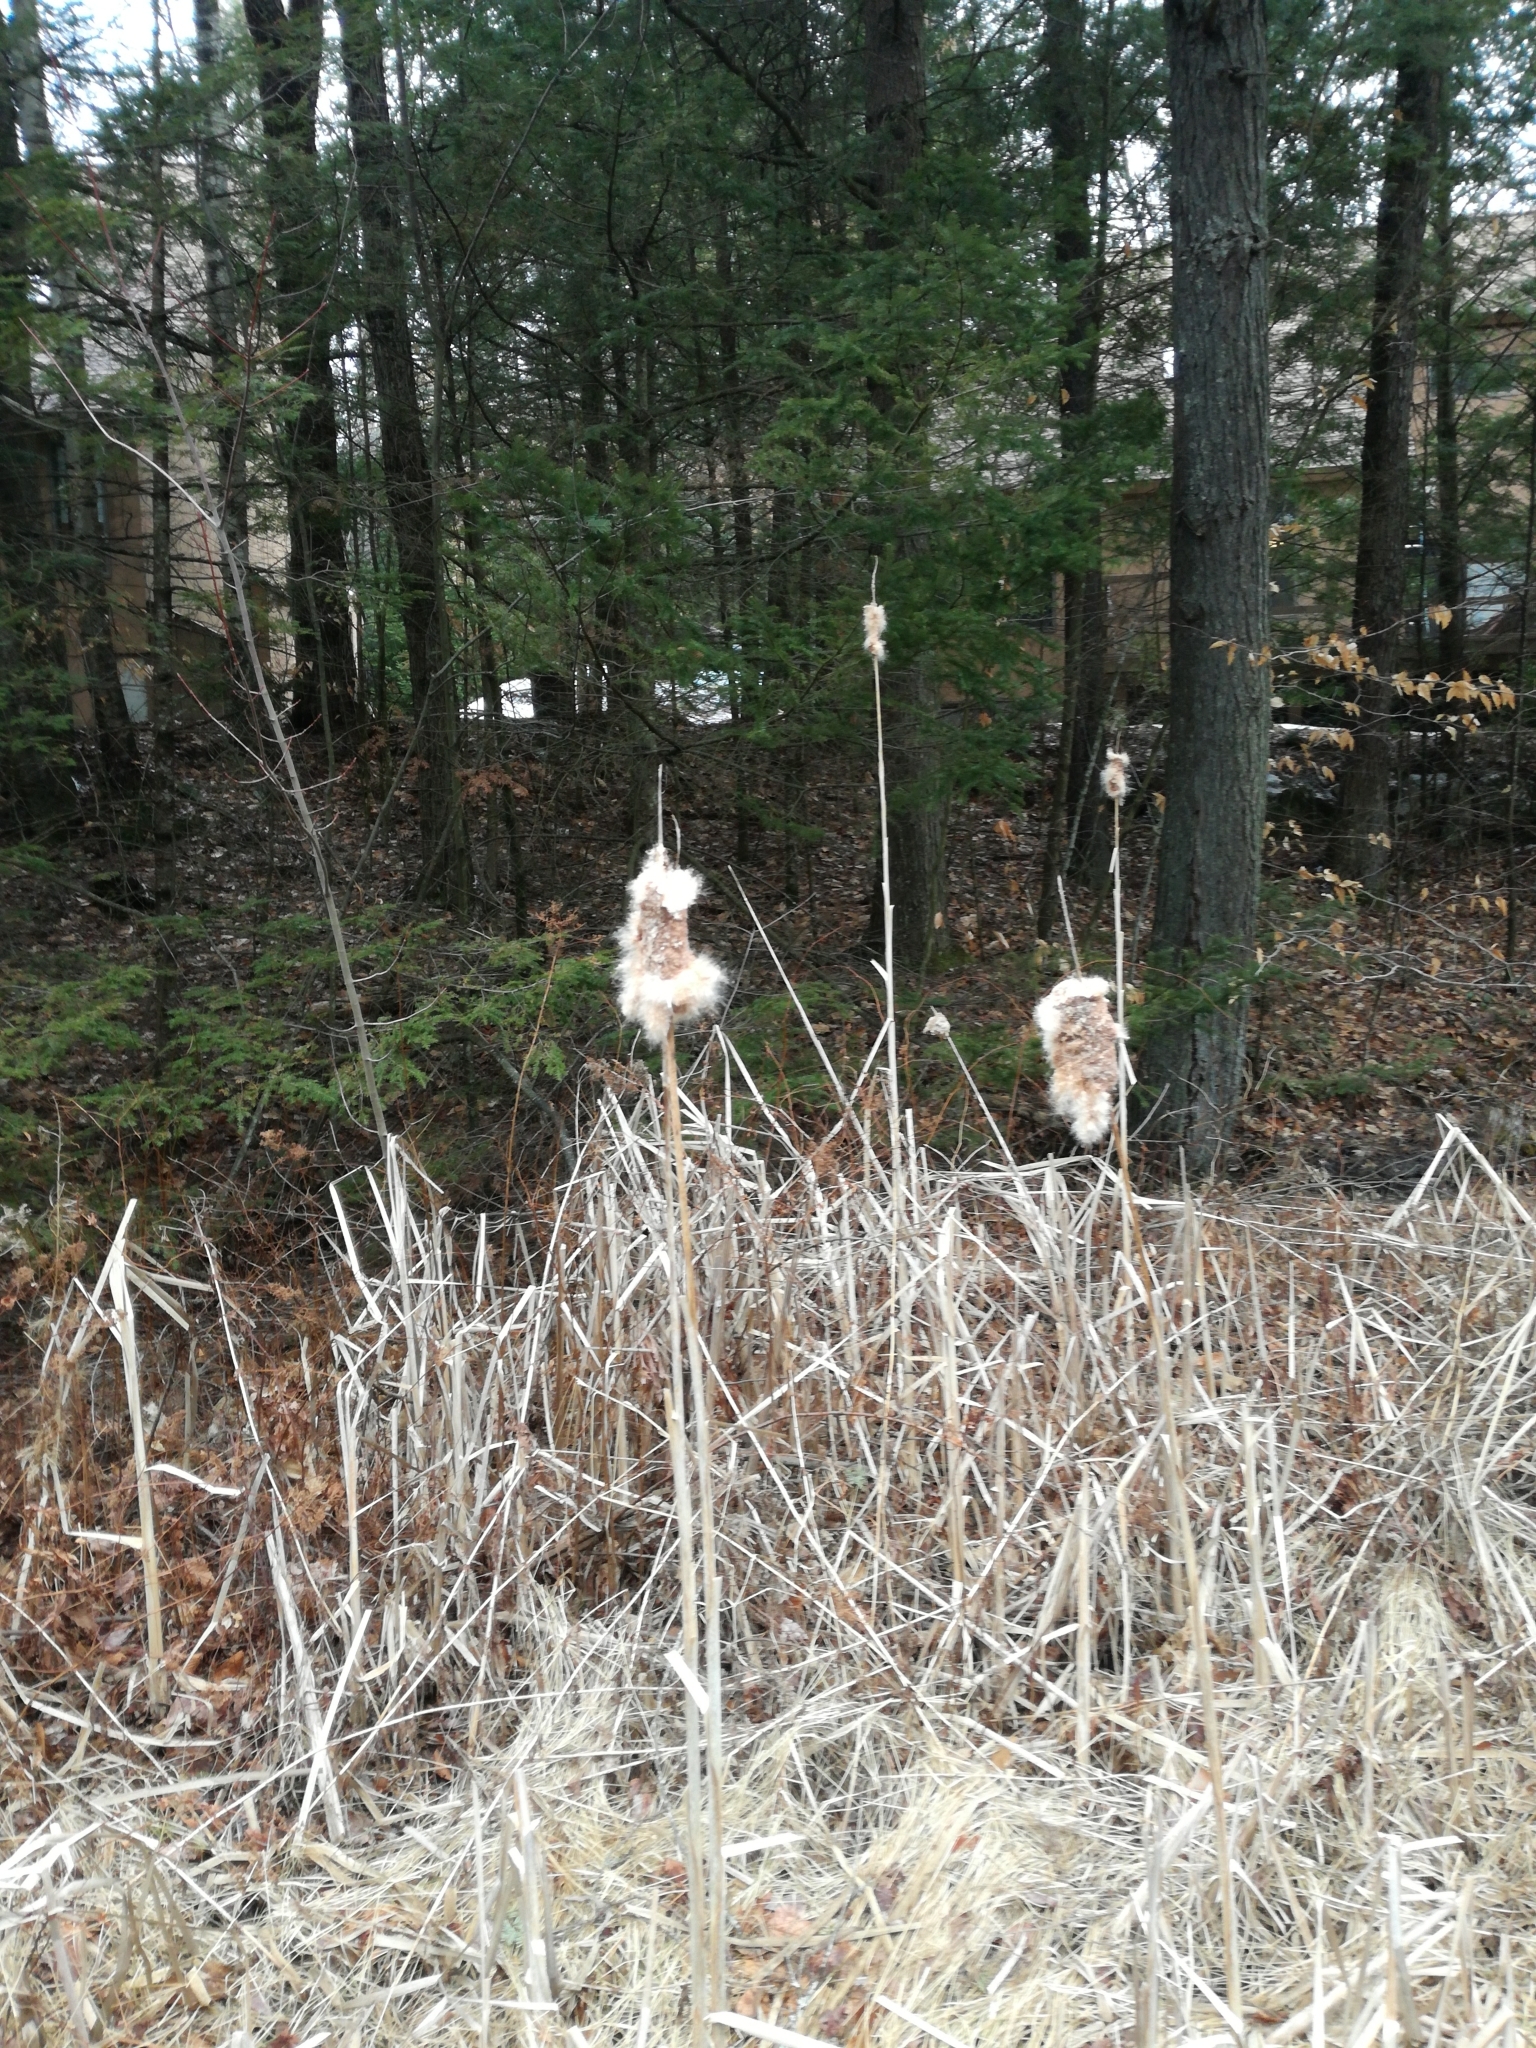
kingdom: Plantae
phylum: Tracheophyta
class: Liliopsida
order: Poales
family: Typhaceae
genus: Typha
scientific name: Typha latifolia
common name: Broadleaf cattail
